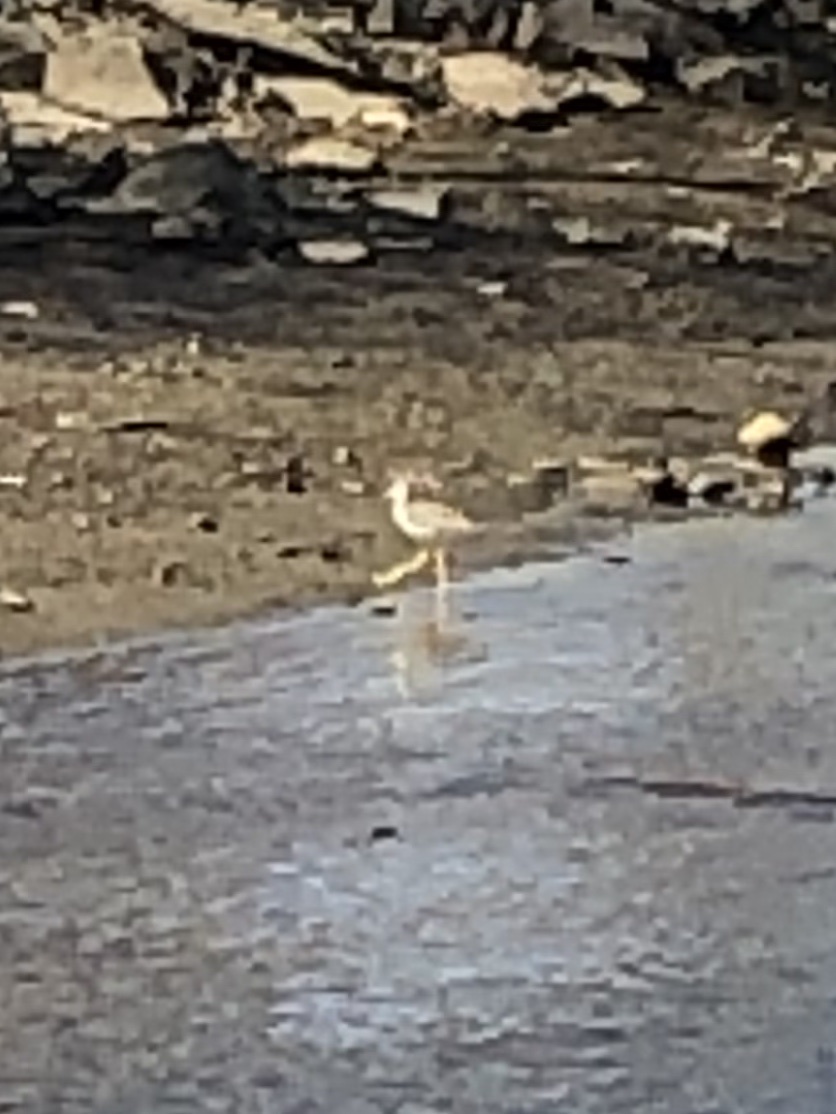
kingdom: Animalia
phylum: Chordata
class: Aves
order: Charadriiformes
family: Scolopacidae
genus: Tringa
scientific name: Tringa melanoleuca
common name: Greater yellowlegs
